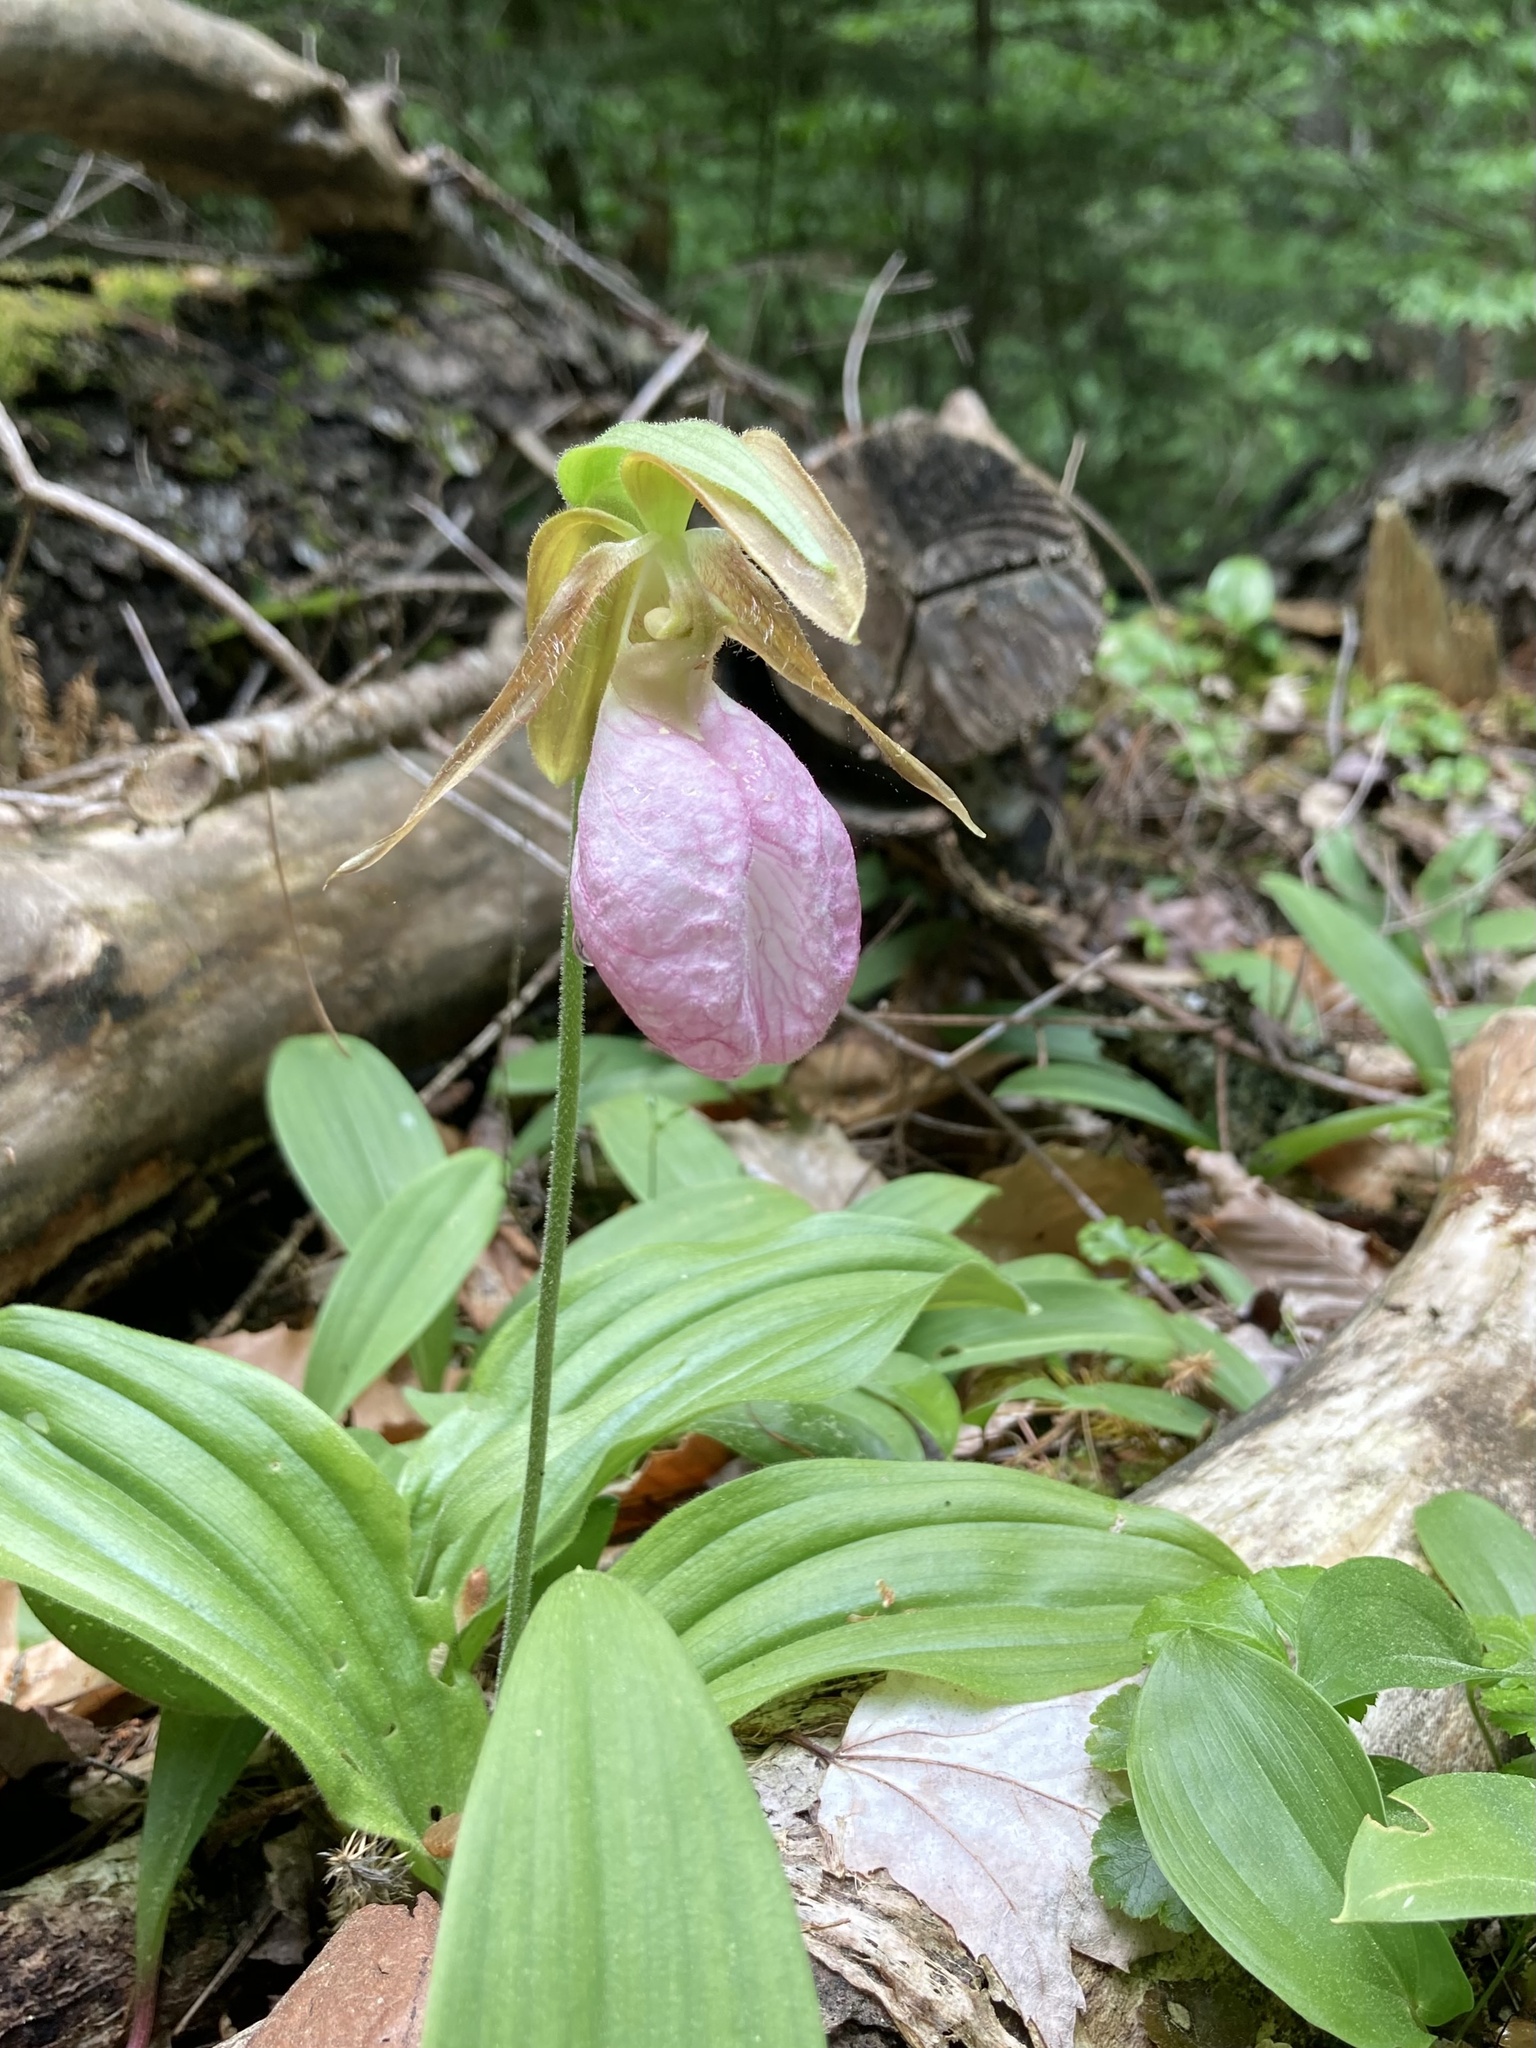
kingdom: Plantae
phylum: Tracheophyta
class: Liliopsida
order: Asparagales
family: Orchidaceae
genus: Cypripedium
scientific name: Cypripedium acaule
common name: Pink lady's-slipper
